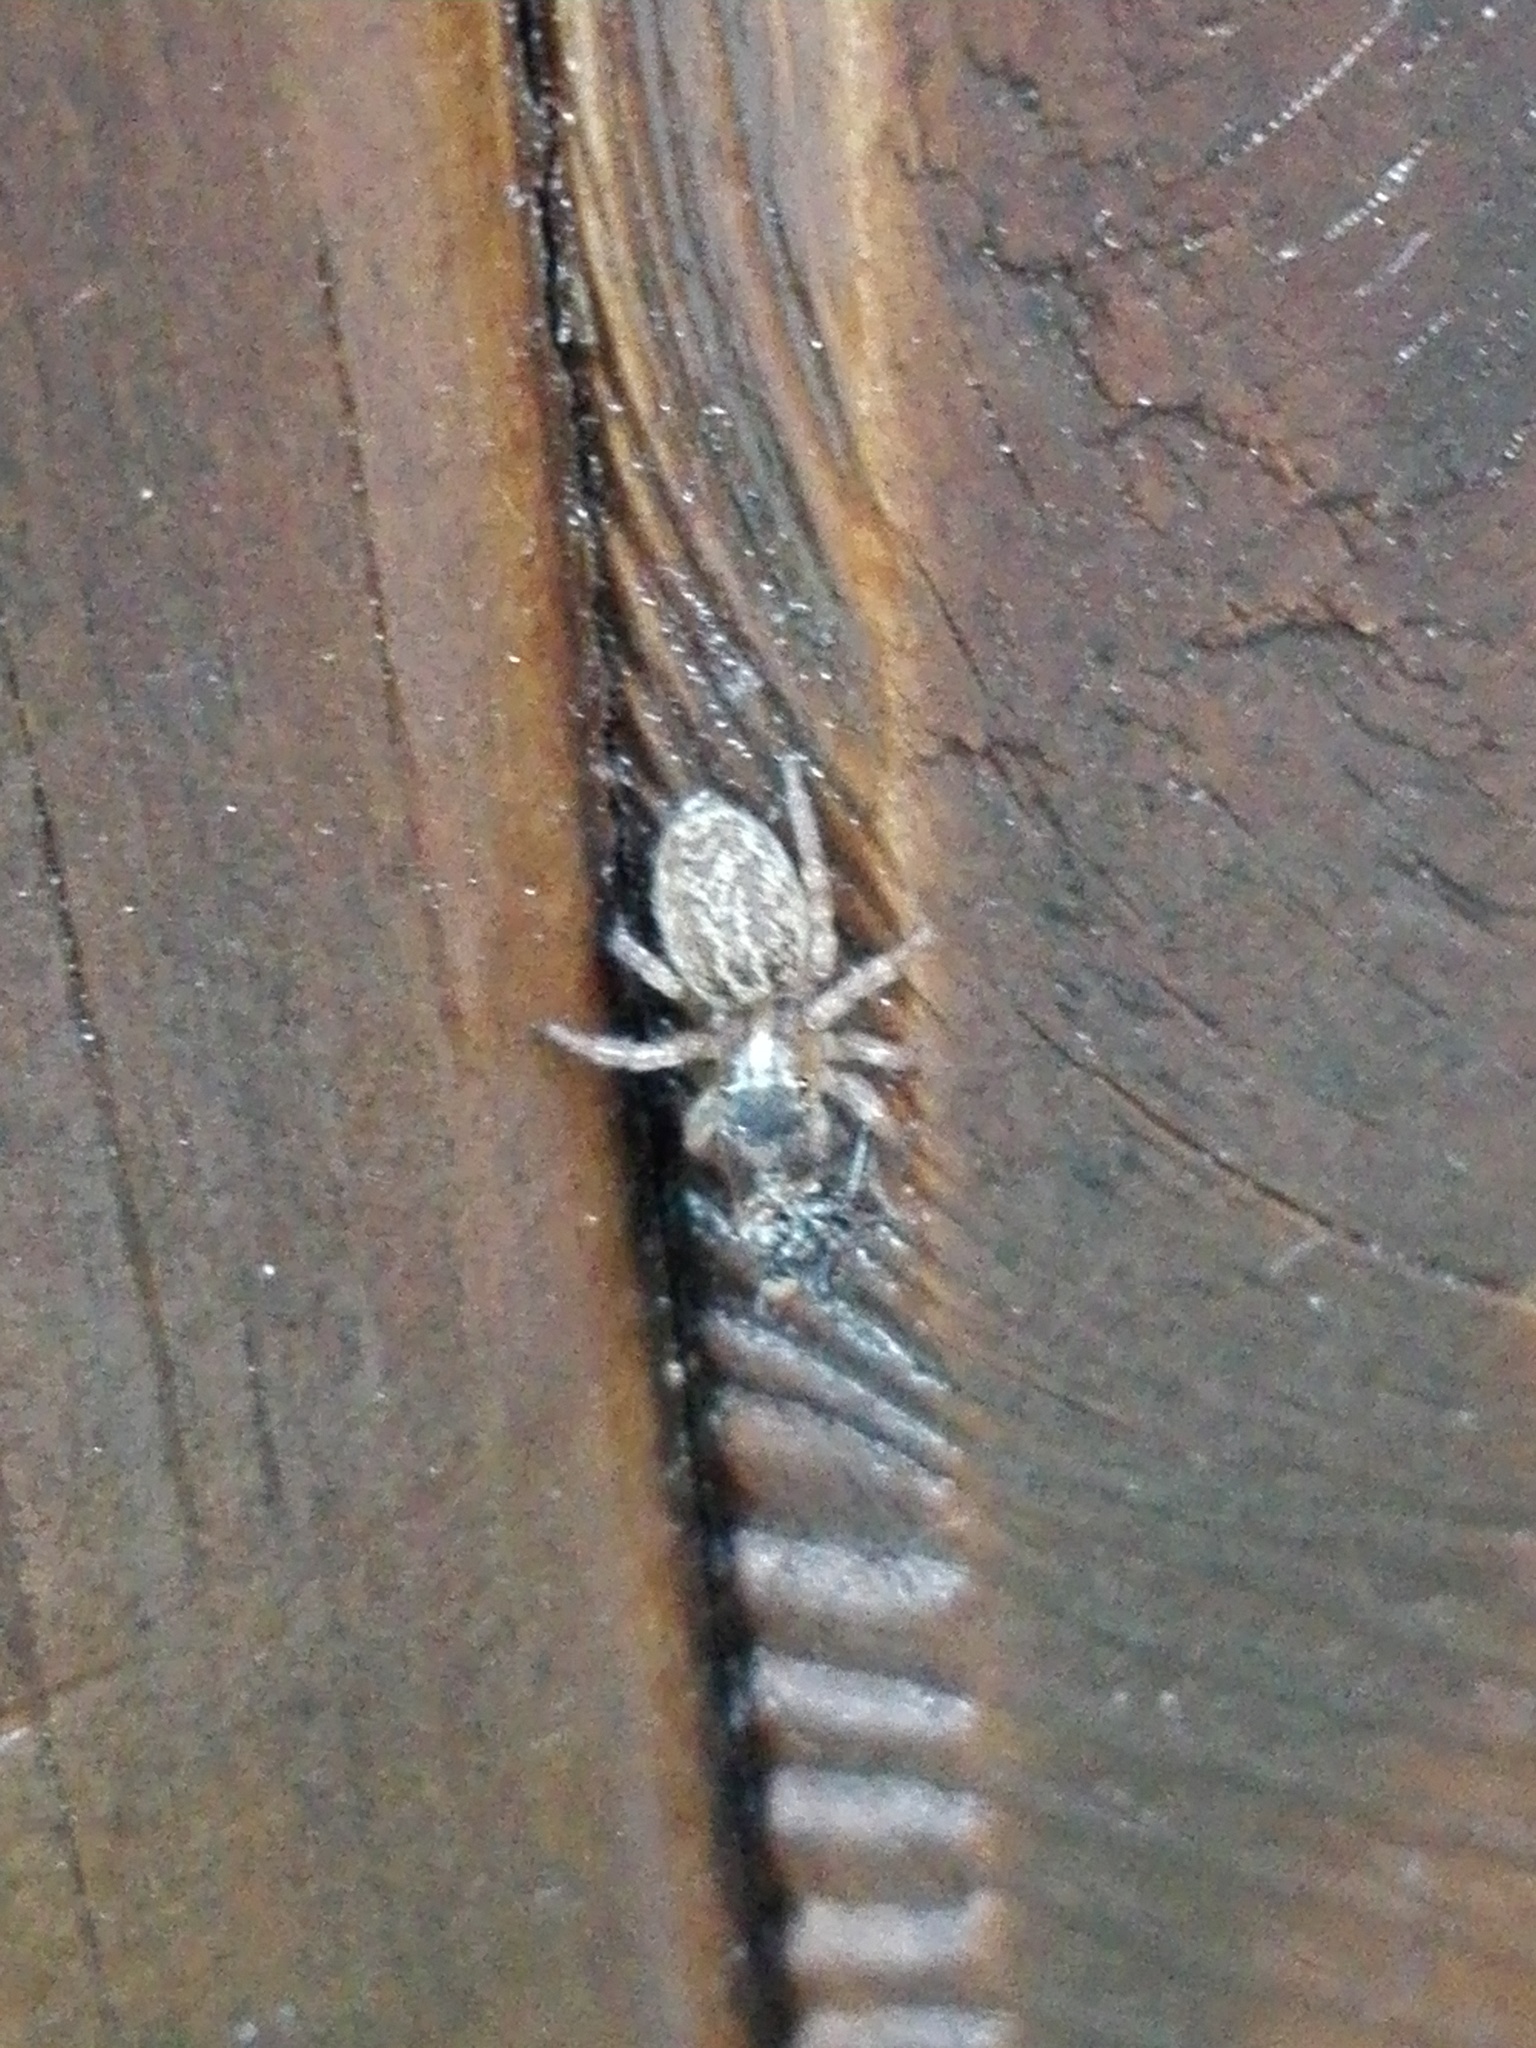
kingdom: Animalia
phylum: Arthropoda
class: Arachnida
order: Araneae
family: Salticidae
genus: Saitis
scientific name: Saitis barbipes
